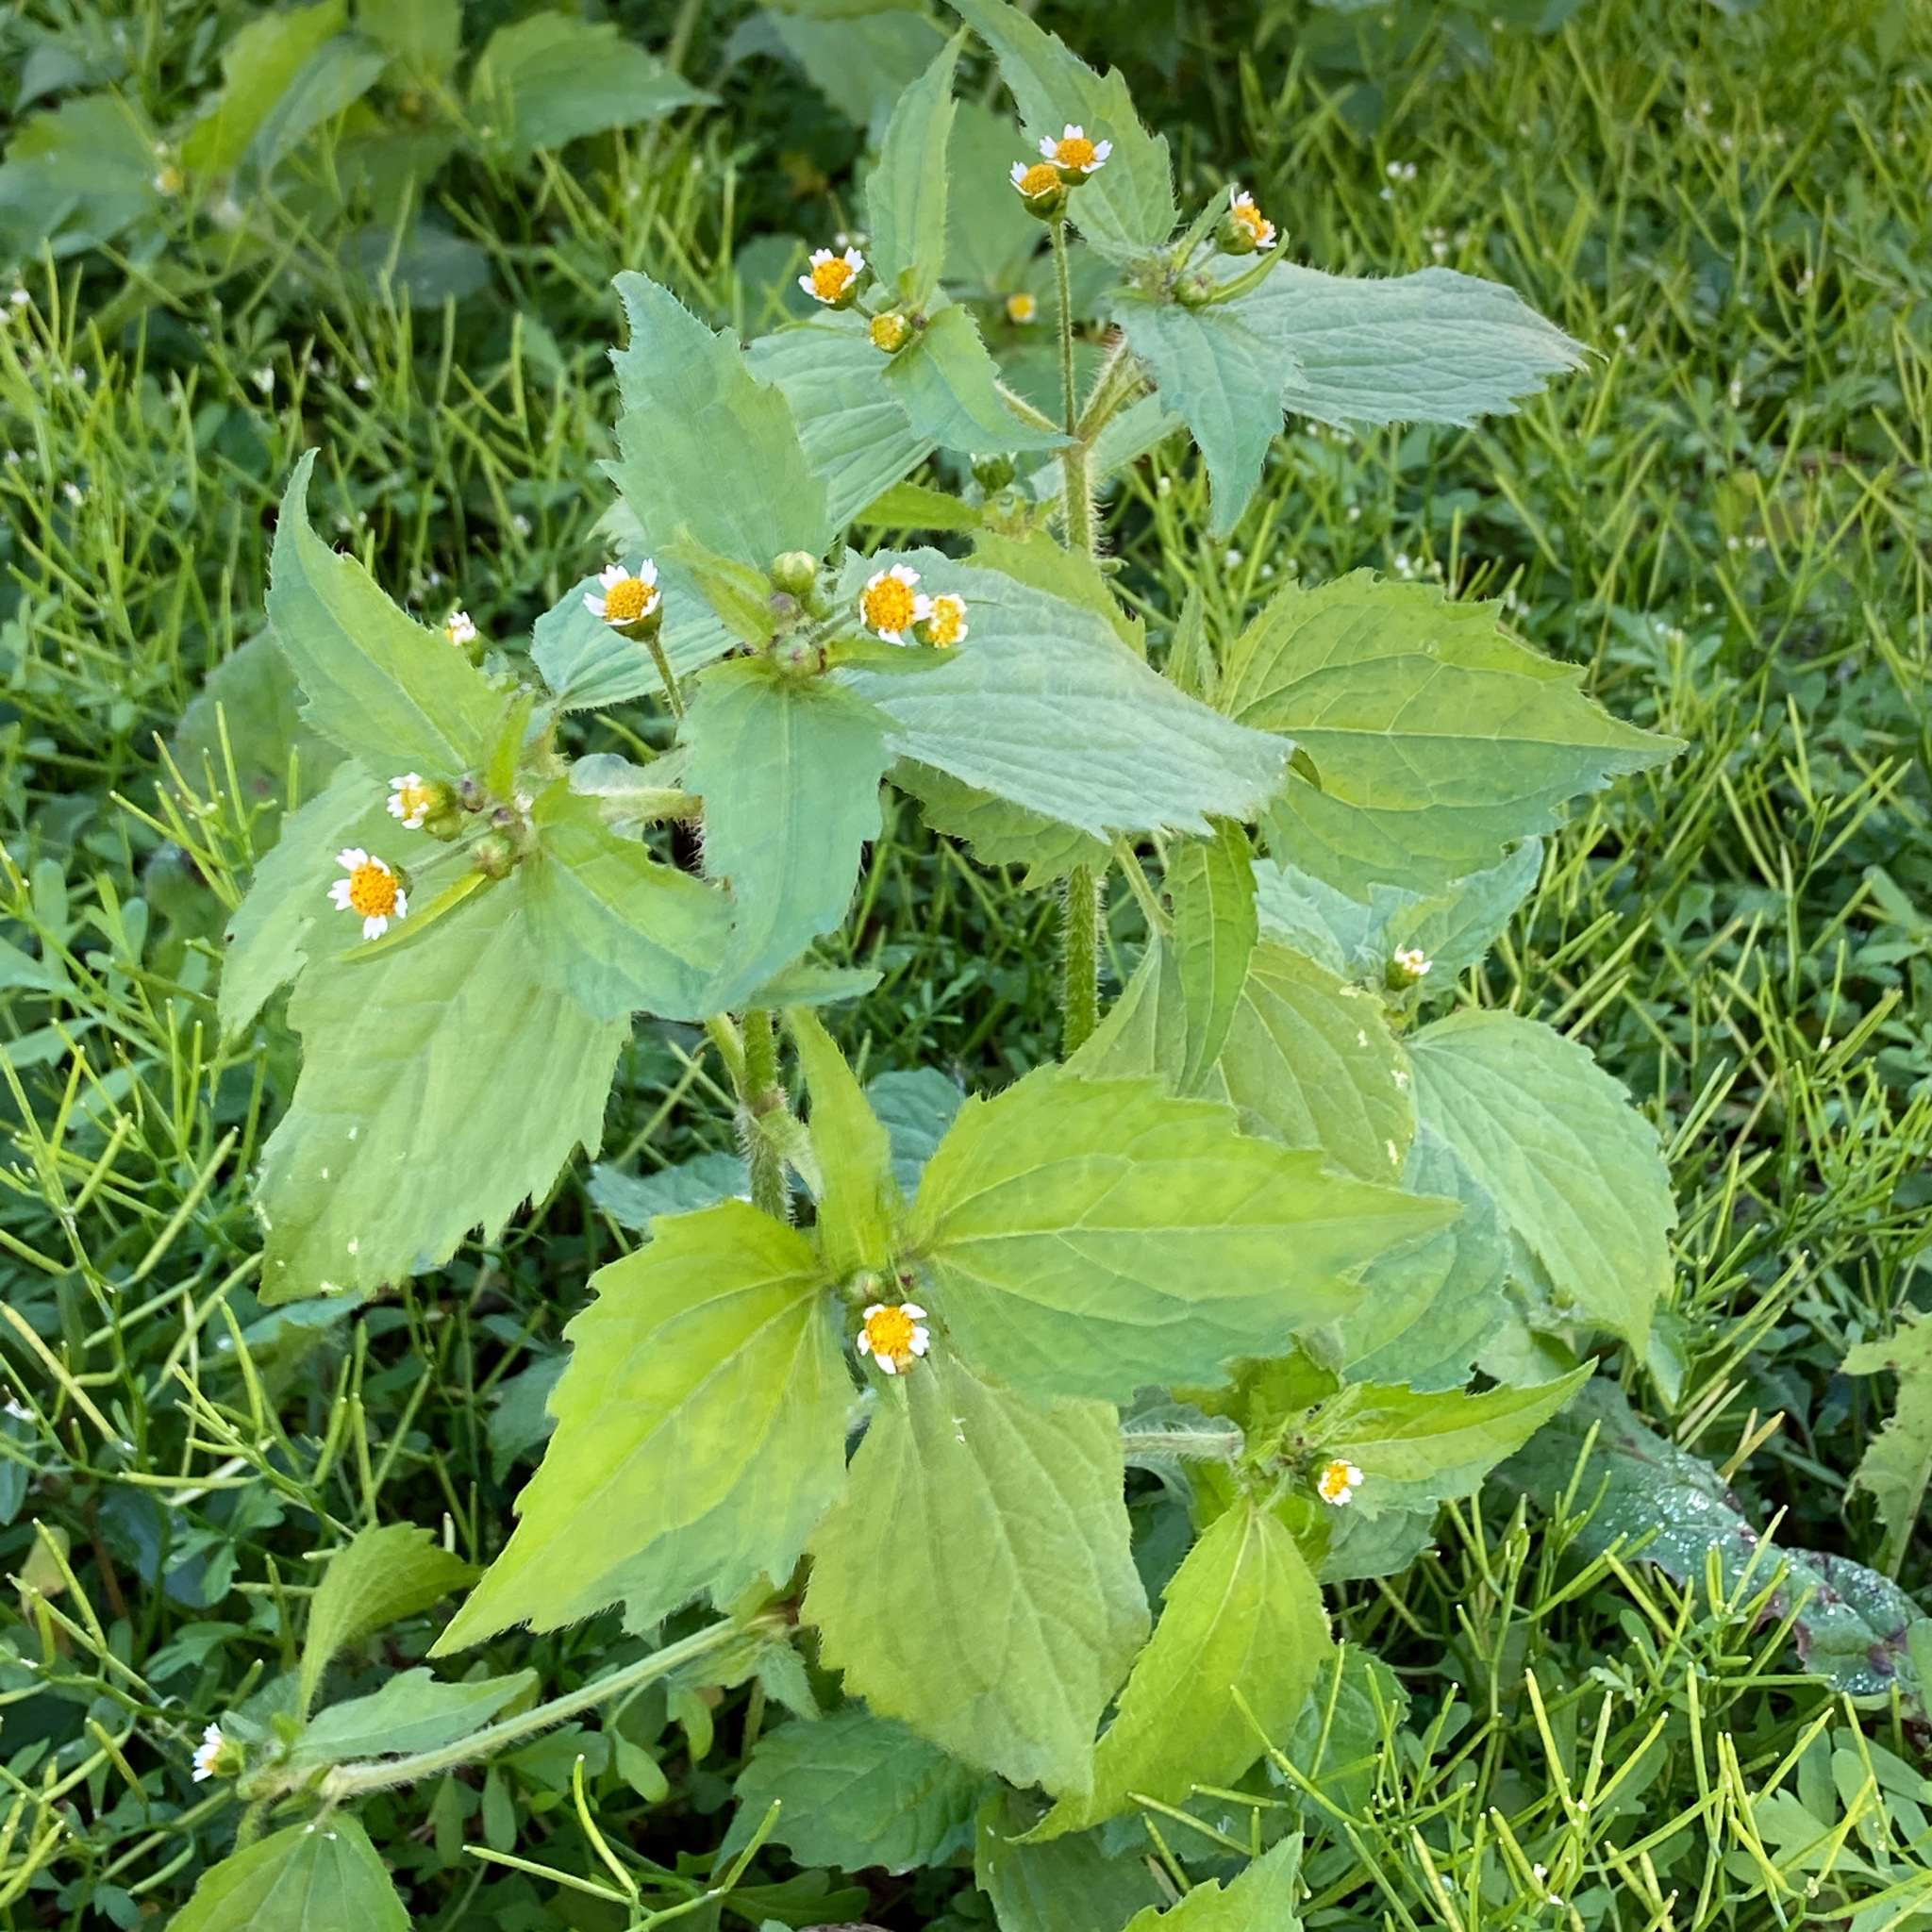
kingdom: Plantae
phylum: Tracheophyta
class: Magnoliopsida
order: Asterales
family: Asteraceae
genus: Galinsoga
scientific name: Galinsoga quadriradiata
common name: Shaggy soldier
